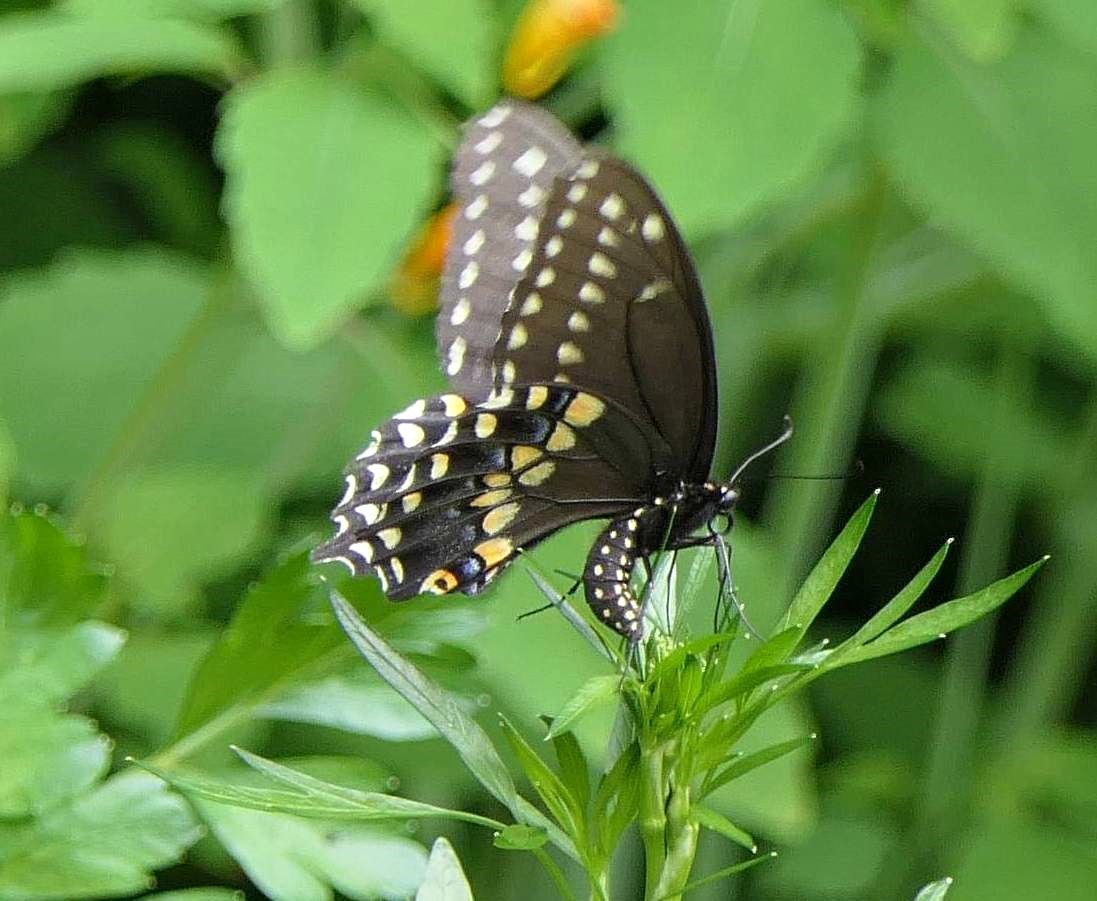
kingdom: Animalia
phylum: Arthropoda
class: Insecta
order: Lepidoptera
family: Papilionidae
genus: Papilio
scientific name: Papilio polyxenes
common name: Black swallowtail
